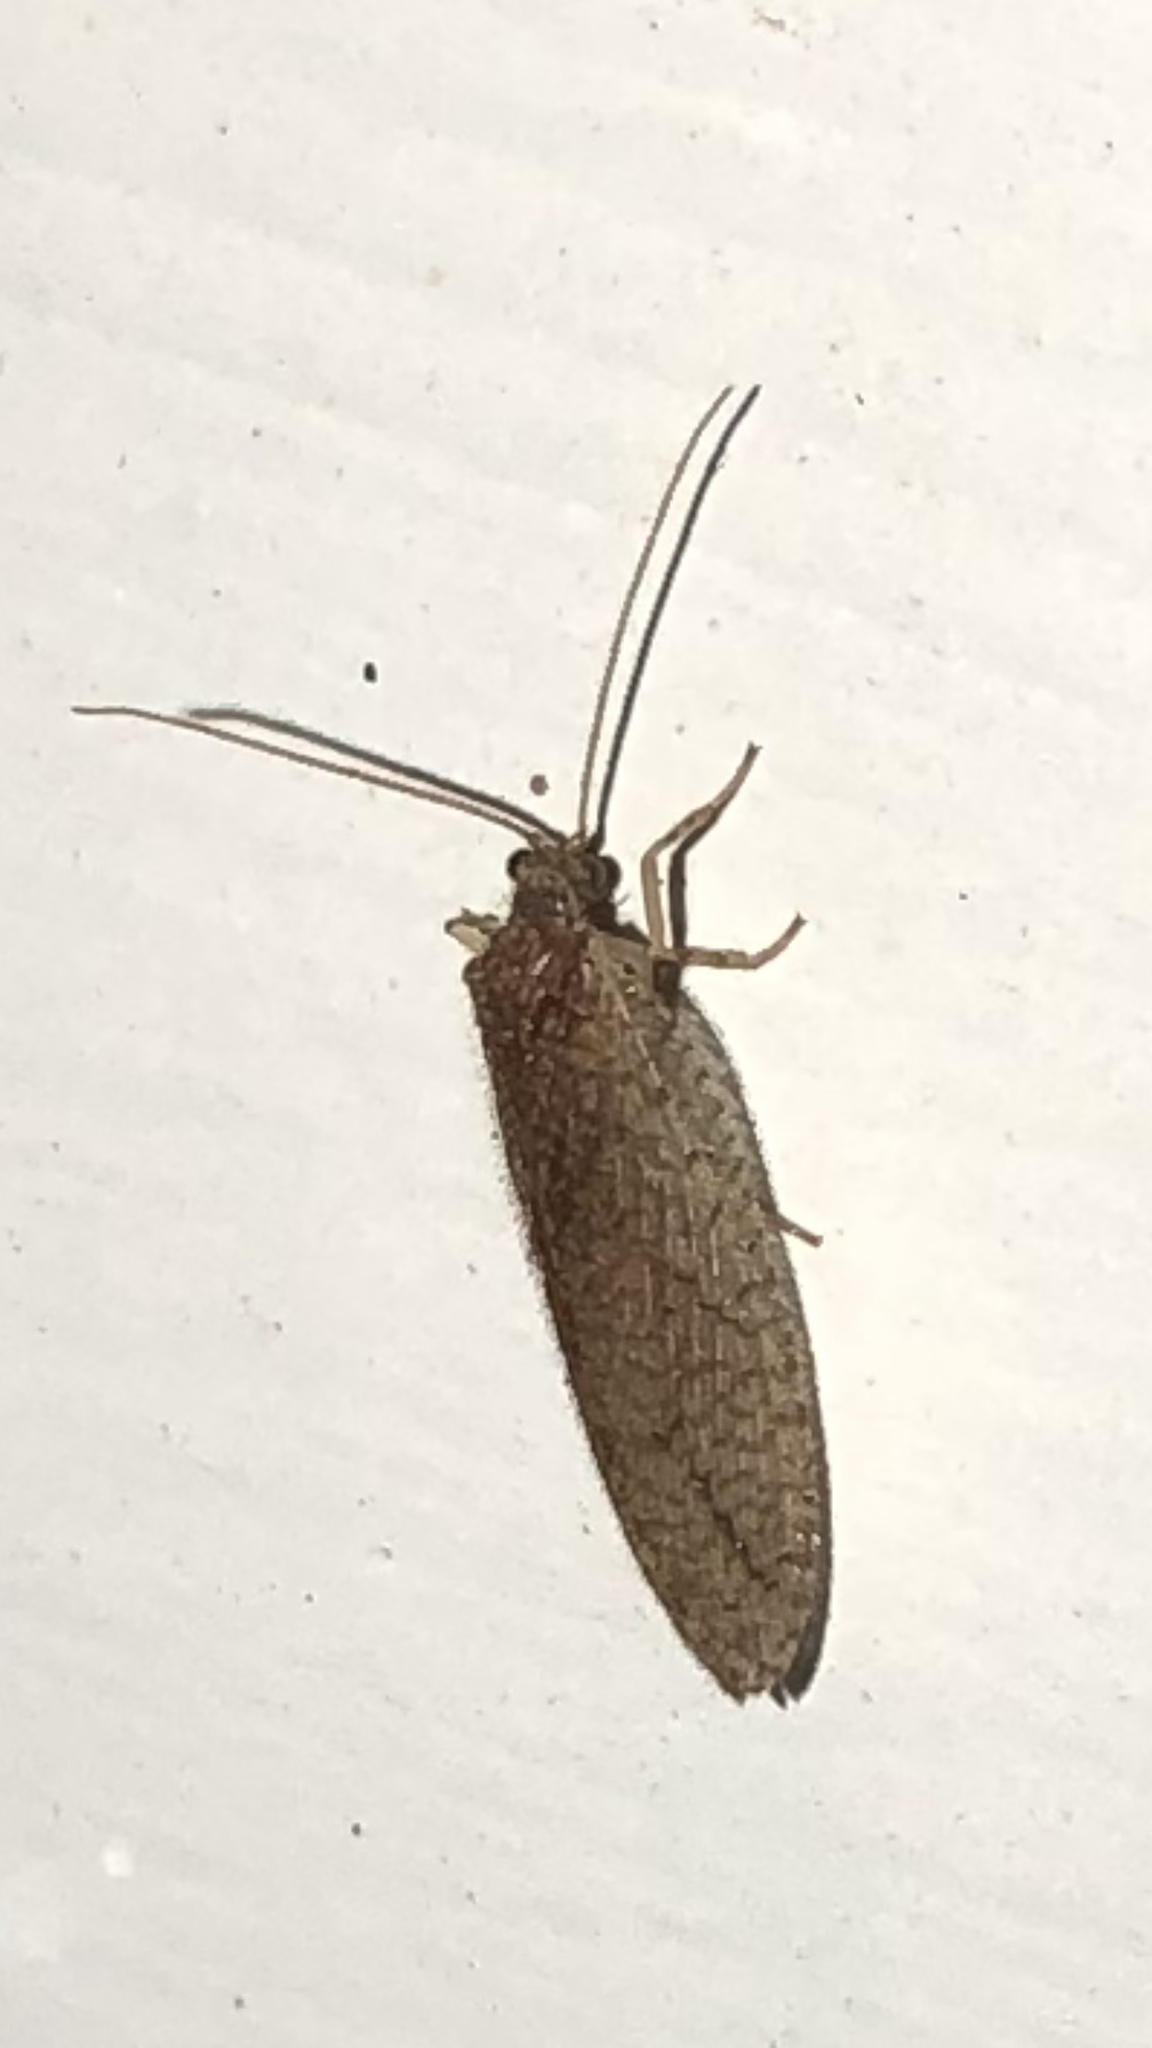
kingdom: Animalia
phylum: Arthropoda
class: Insecta
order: Neuroptera
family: Hemerobiidae
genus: Micromus
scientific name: Micromus posticus
